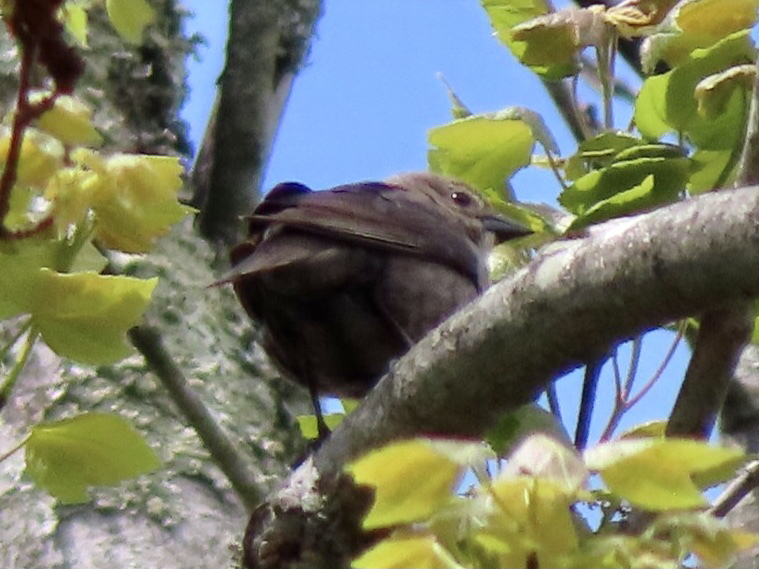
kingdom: Animalia
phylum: Chordata
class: Aves
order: Passeriformes
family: Icteridae
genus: Molothrus
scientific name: Molothrus ater
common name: Brown-headed cowbird
